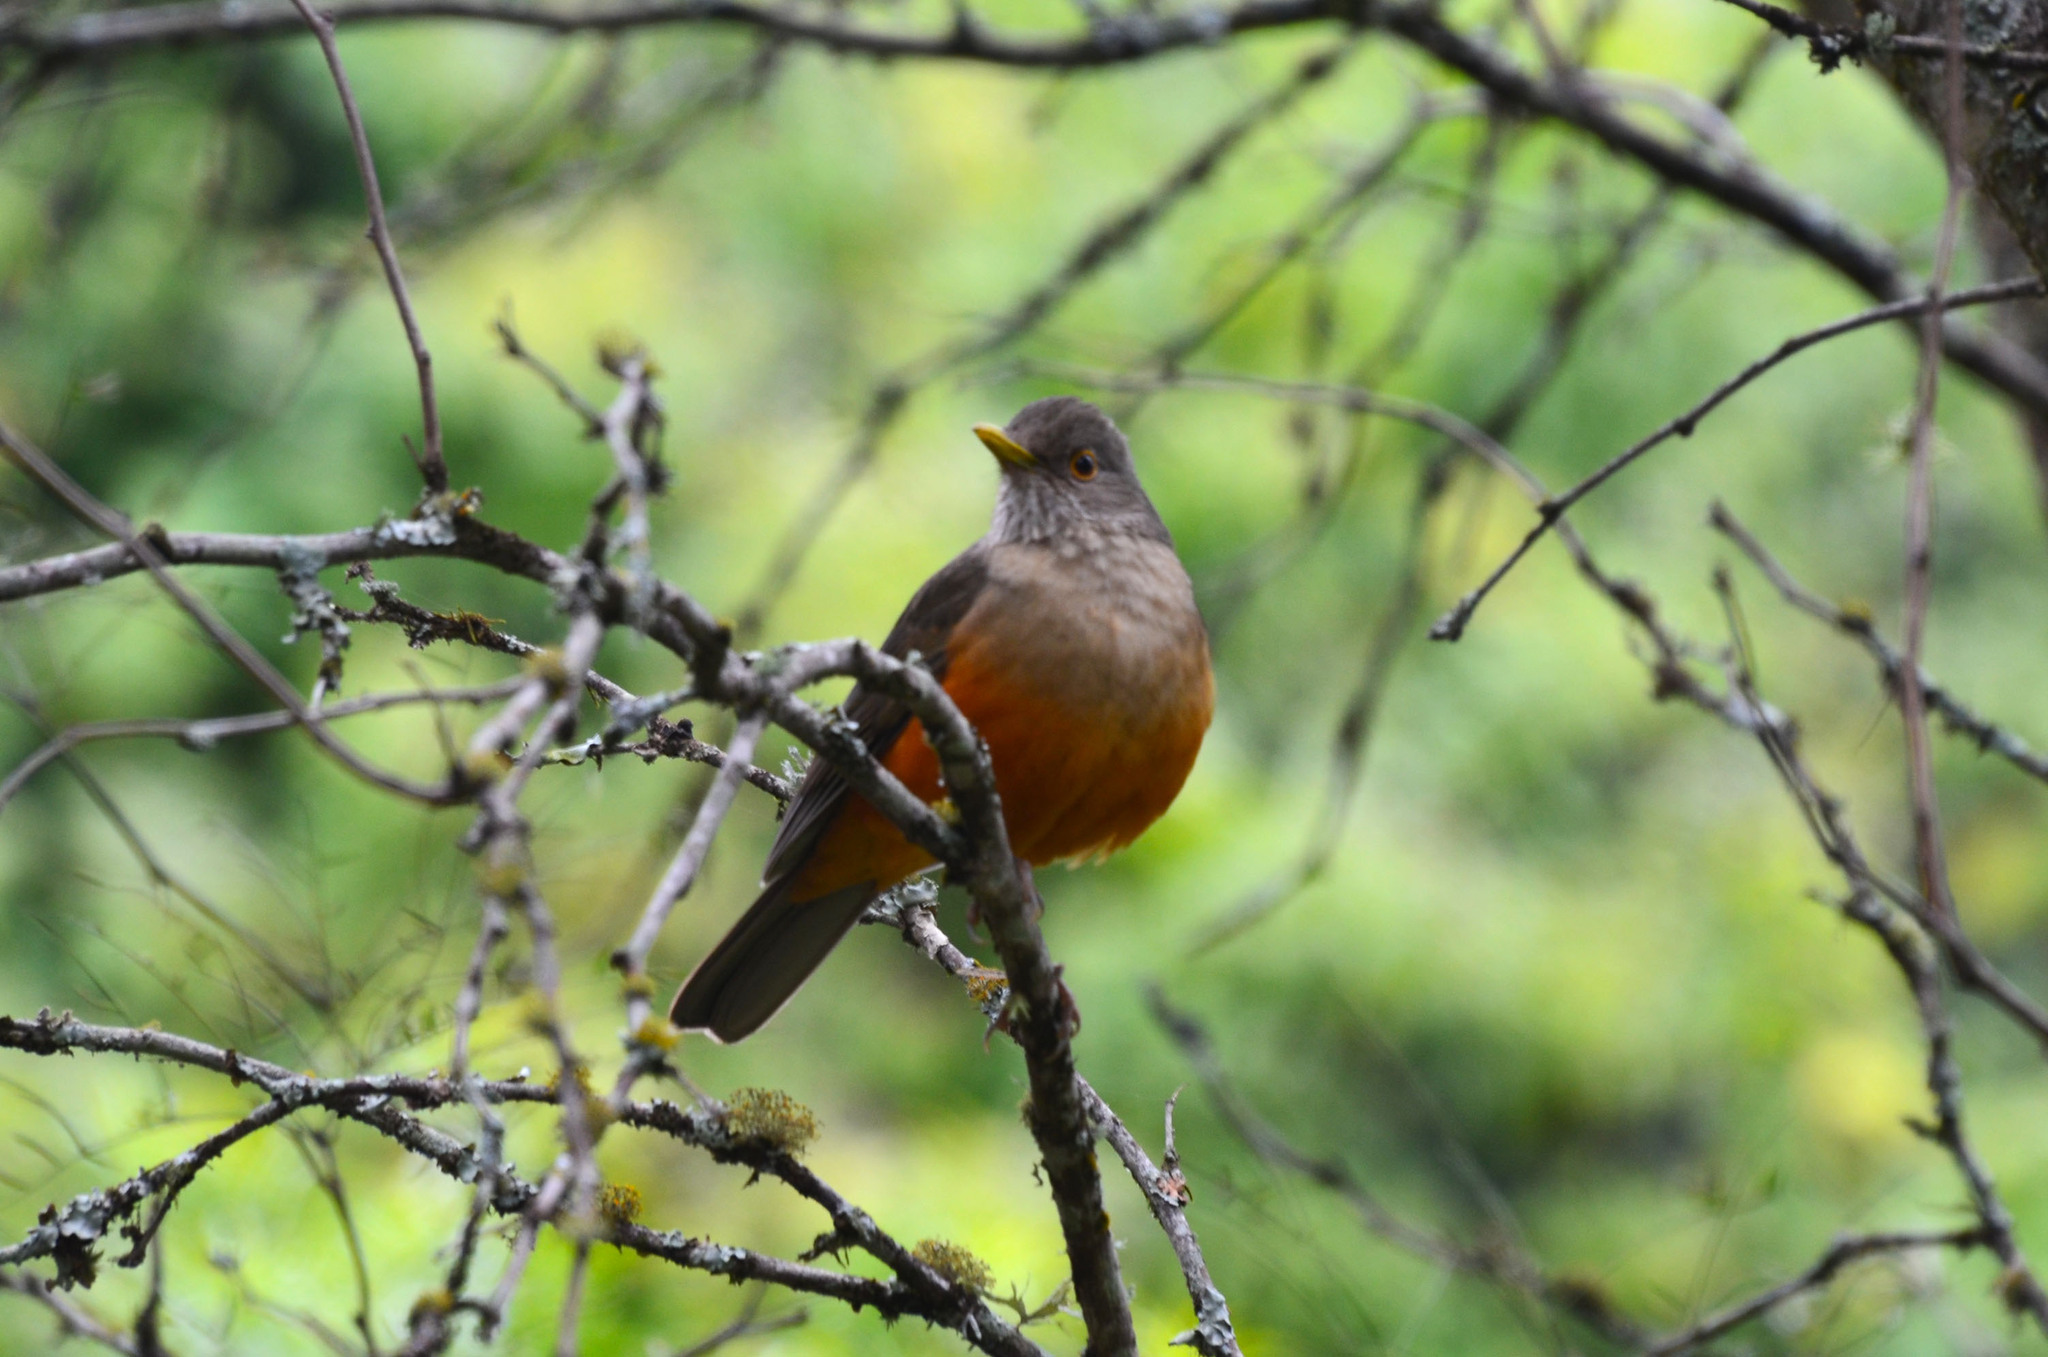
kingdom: Animalia
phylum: Chordata
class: Aves
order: Passeriformes
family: Turdidae
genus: Turdus
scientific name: Turdus rufiventris
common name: Rufous-bellied thrush
